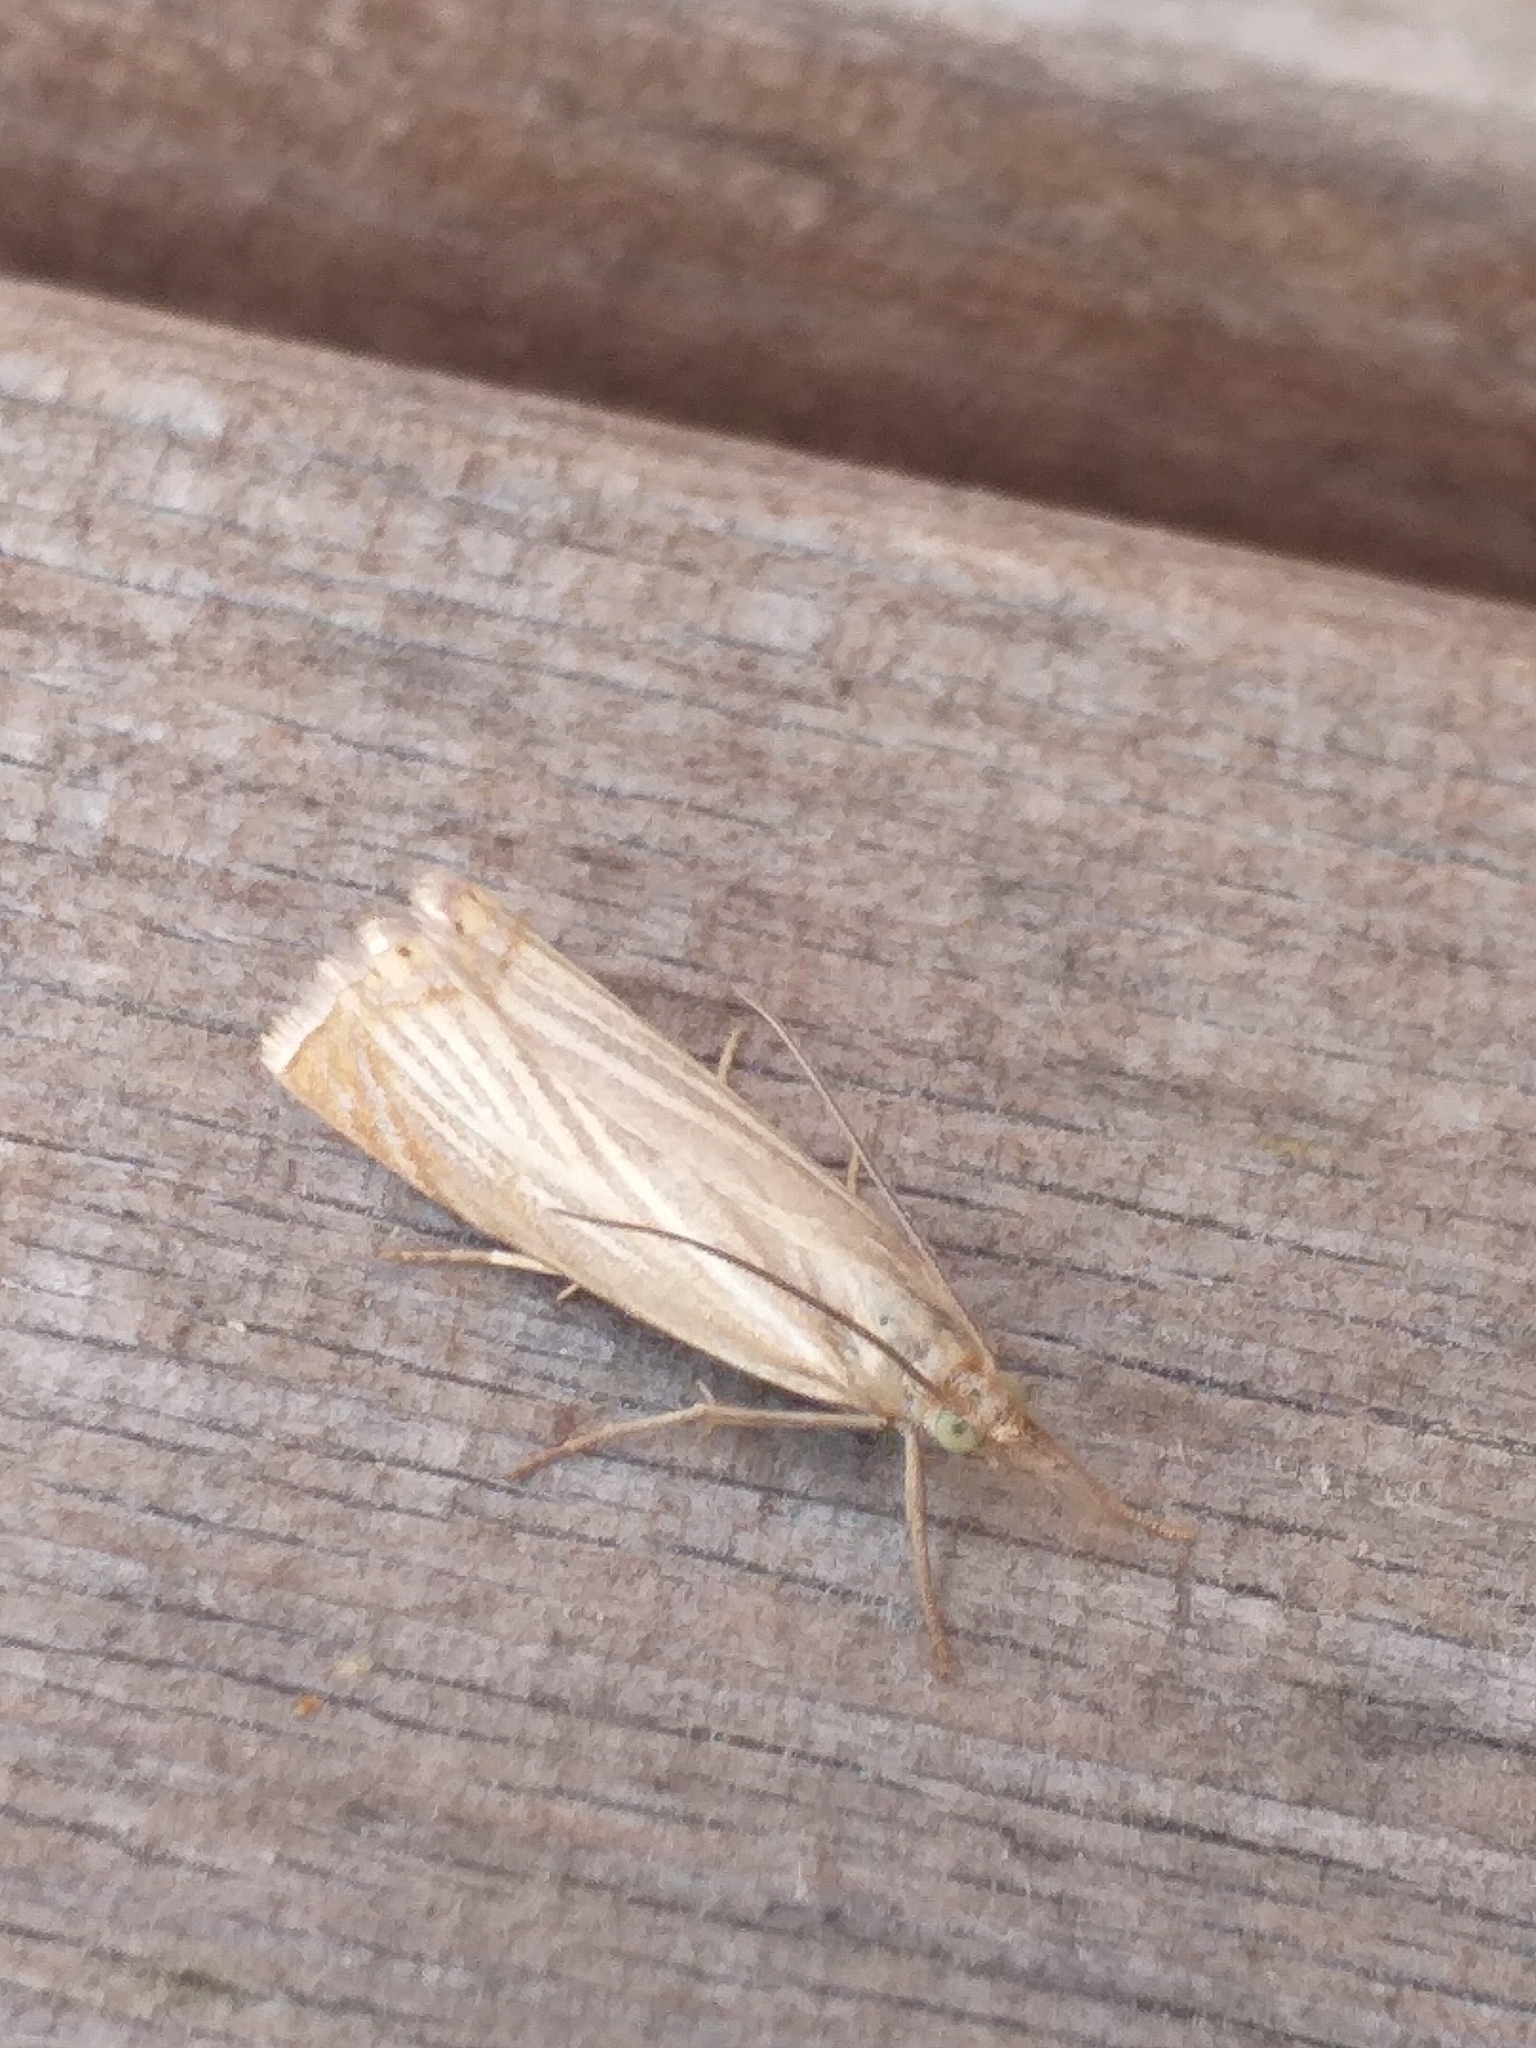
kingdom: Animalia
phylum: Arthropoda
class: Insecta
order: Lepidoptera
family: Crambidae
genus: Chrysoteuchia
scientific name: Chrysoteuchia culmella
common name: Garden grass-veneer
